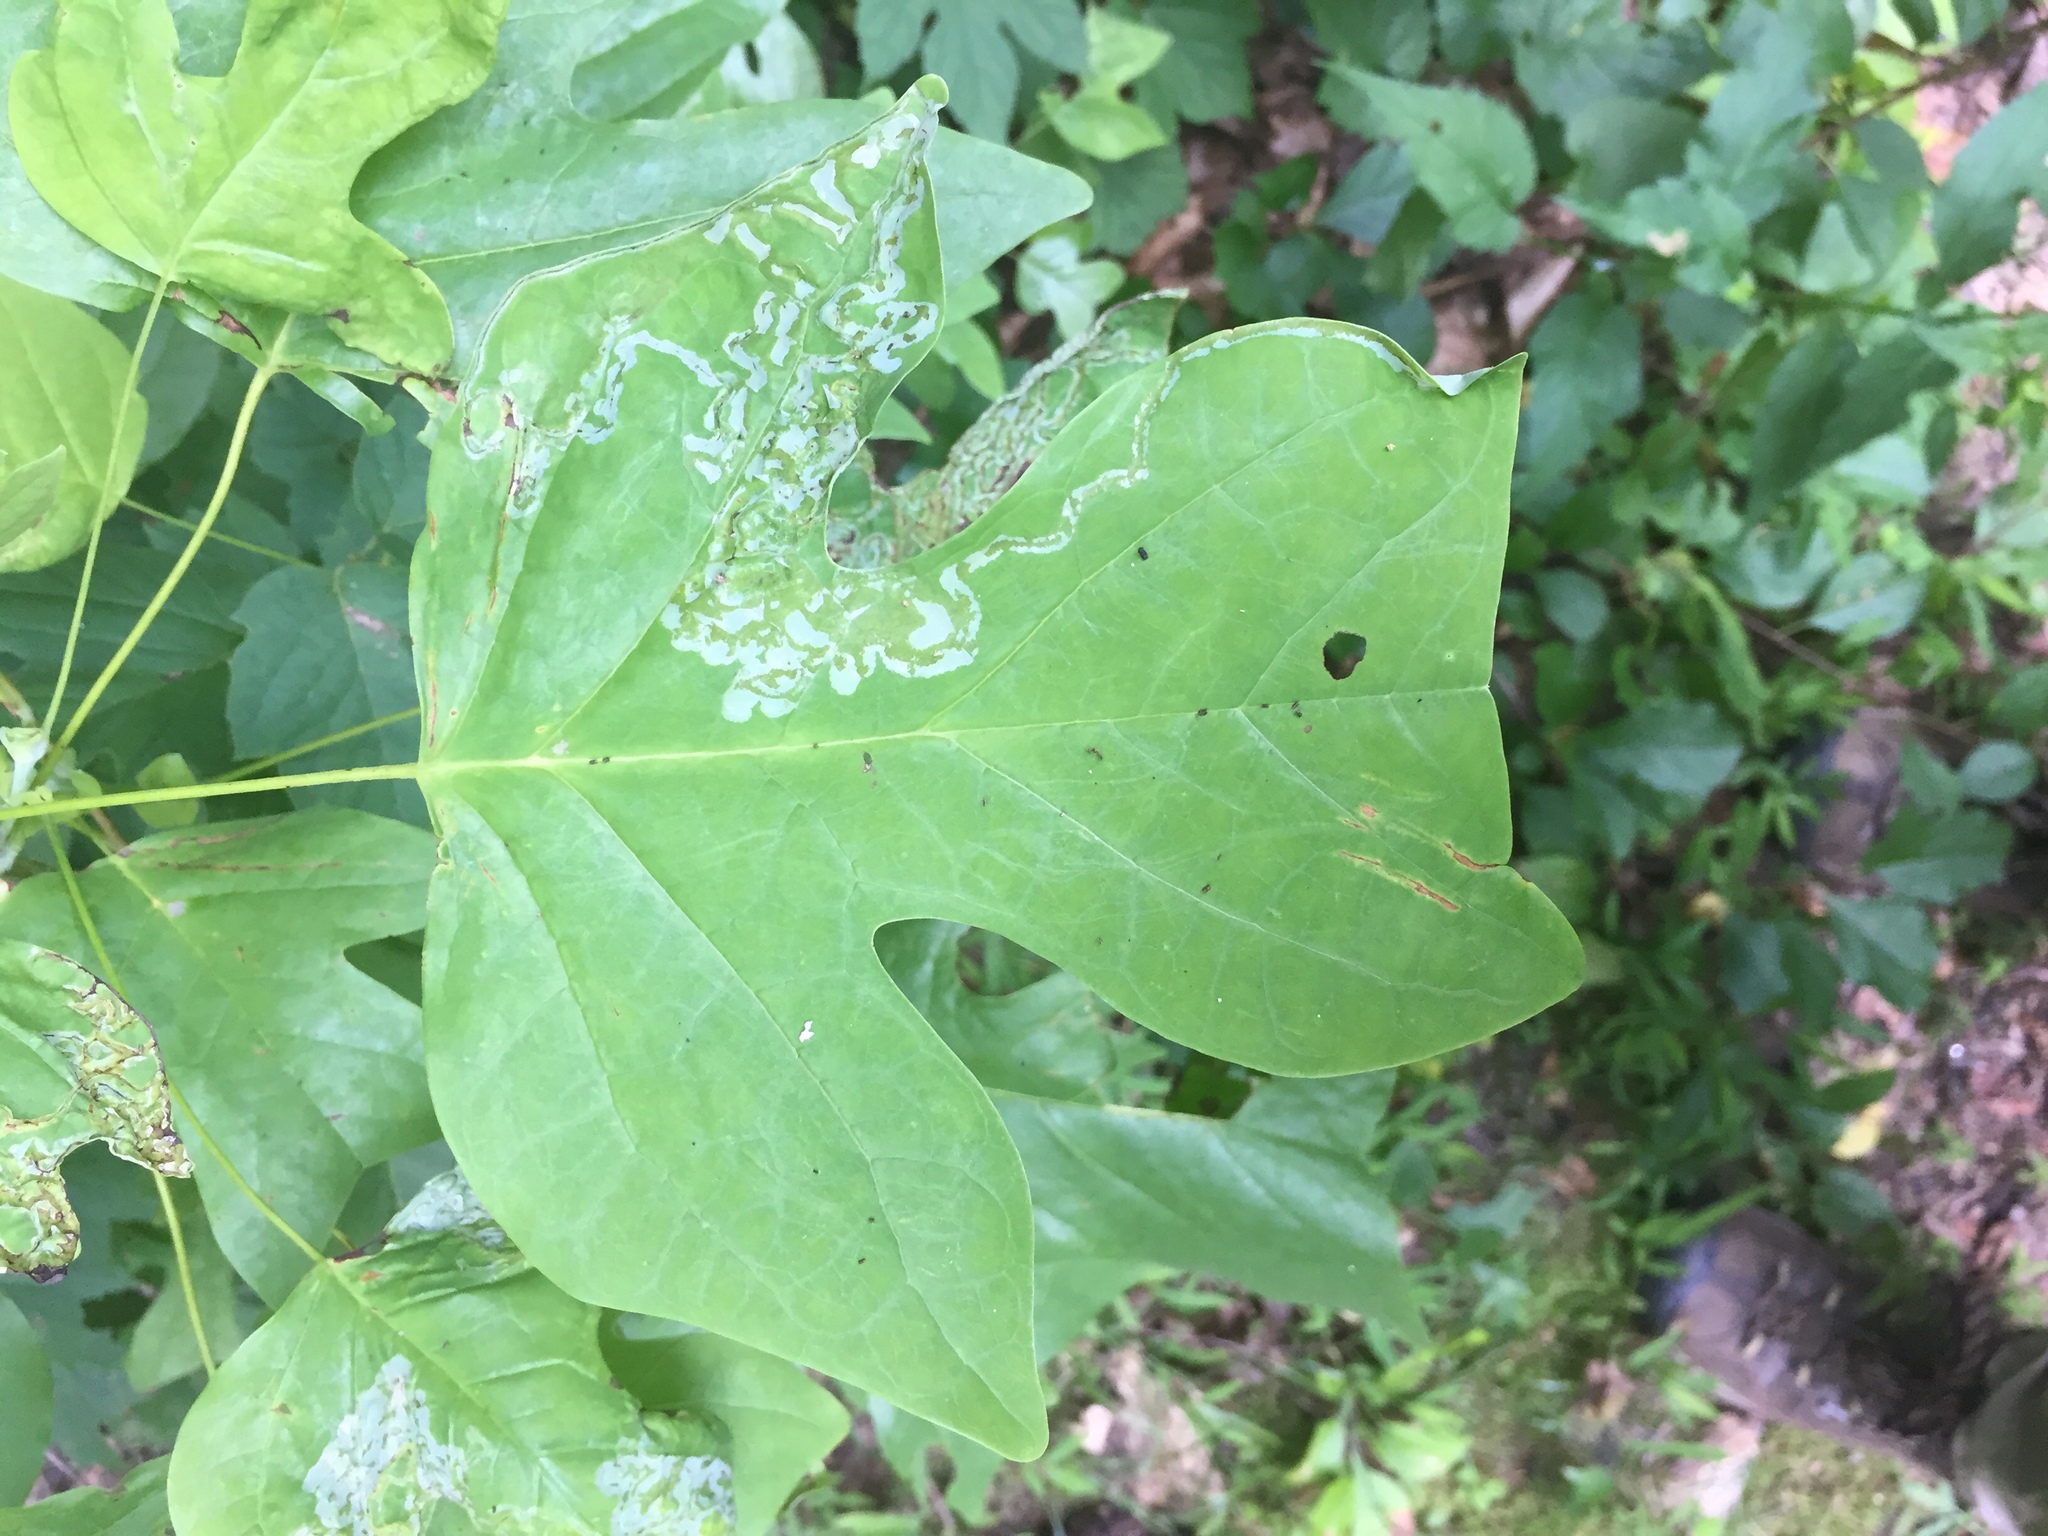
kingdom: Plantae
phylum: Tracheophyta
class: Magnoliopsida
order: Magnoliales
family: Magnoliaceae
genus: Liriodendron
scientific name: Liriodendron tulipifera
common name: Tulip tree
